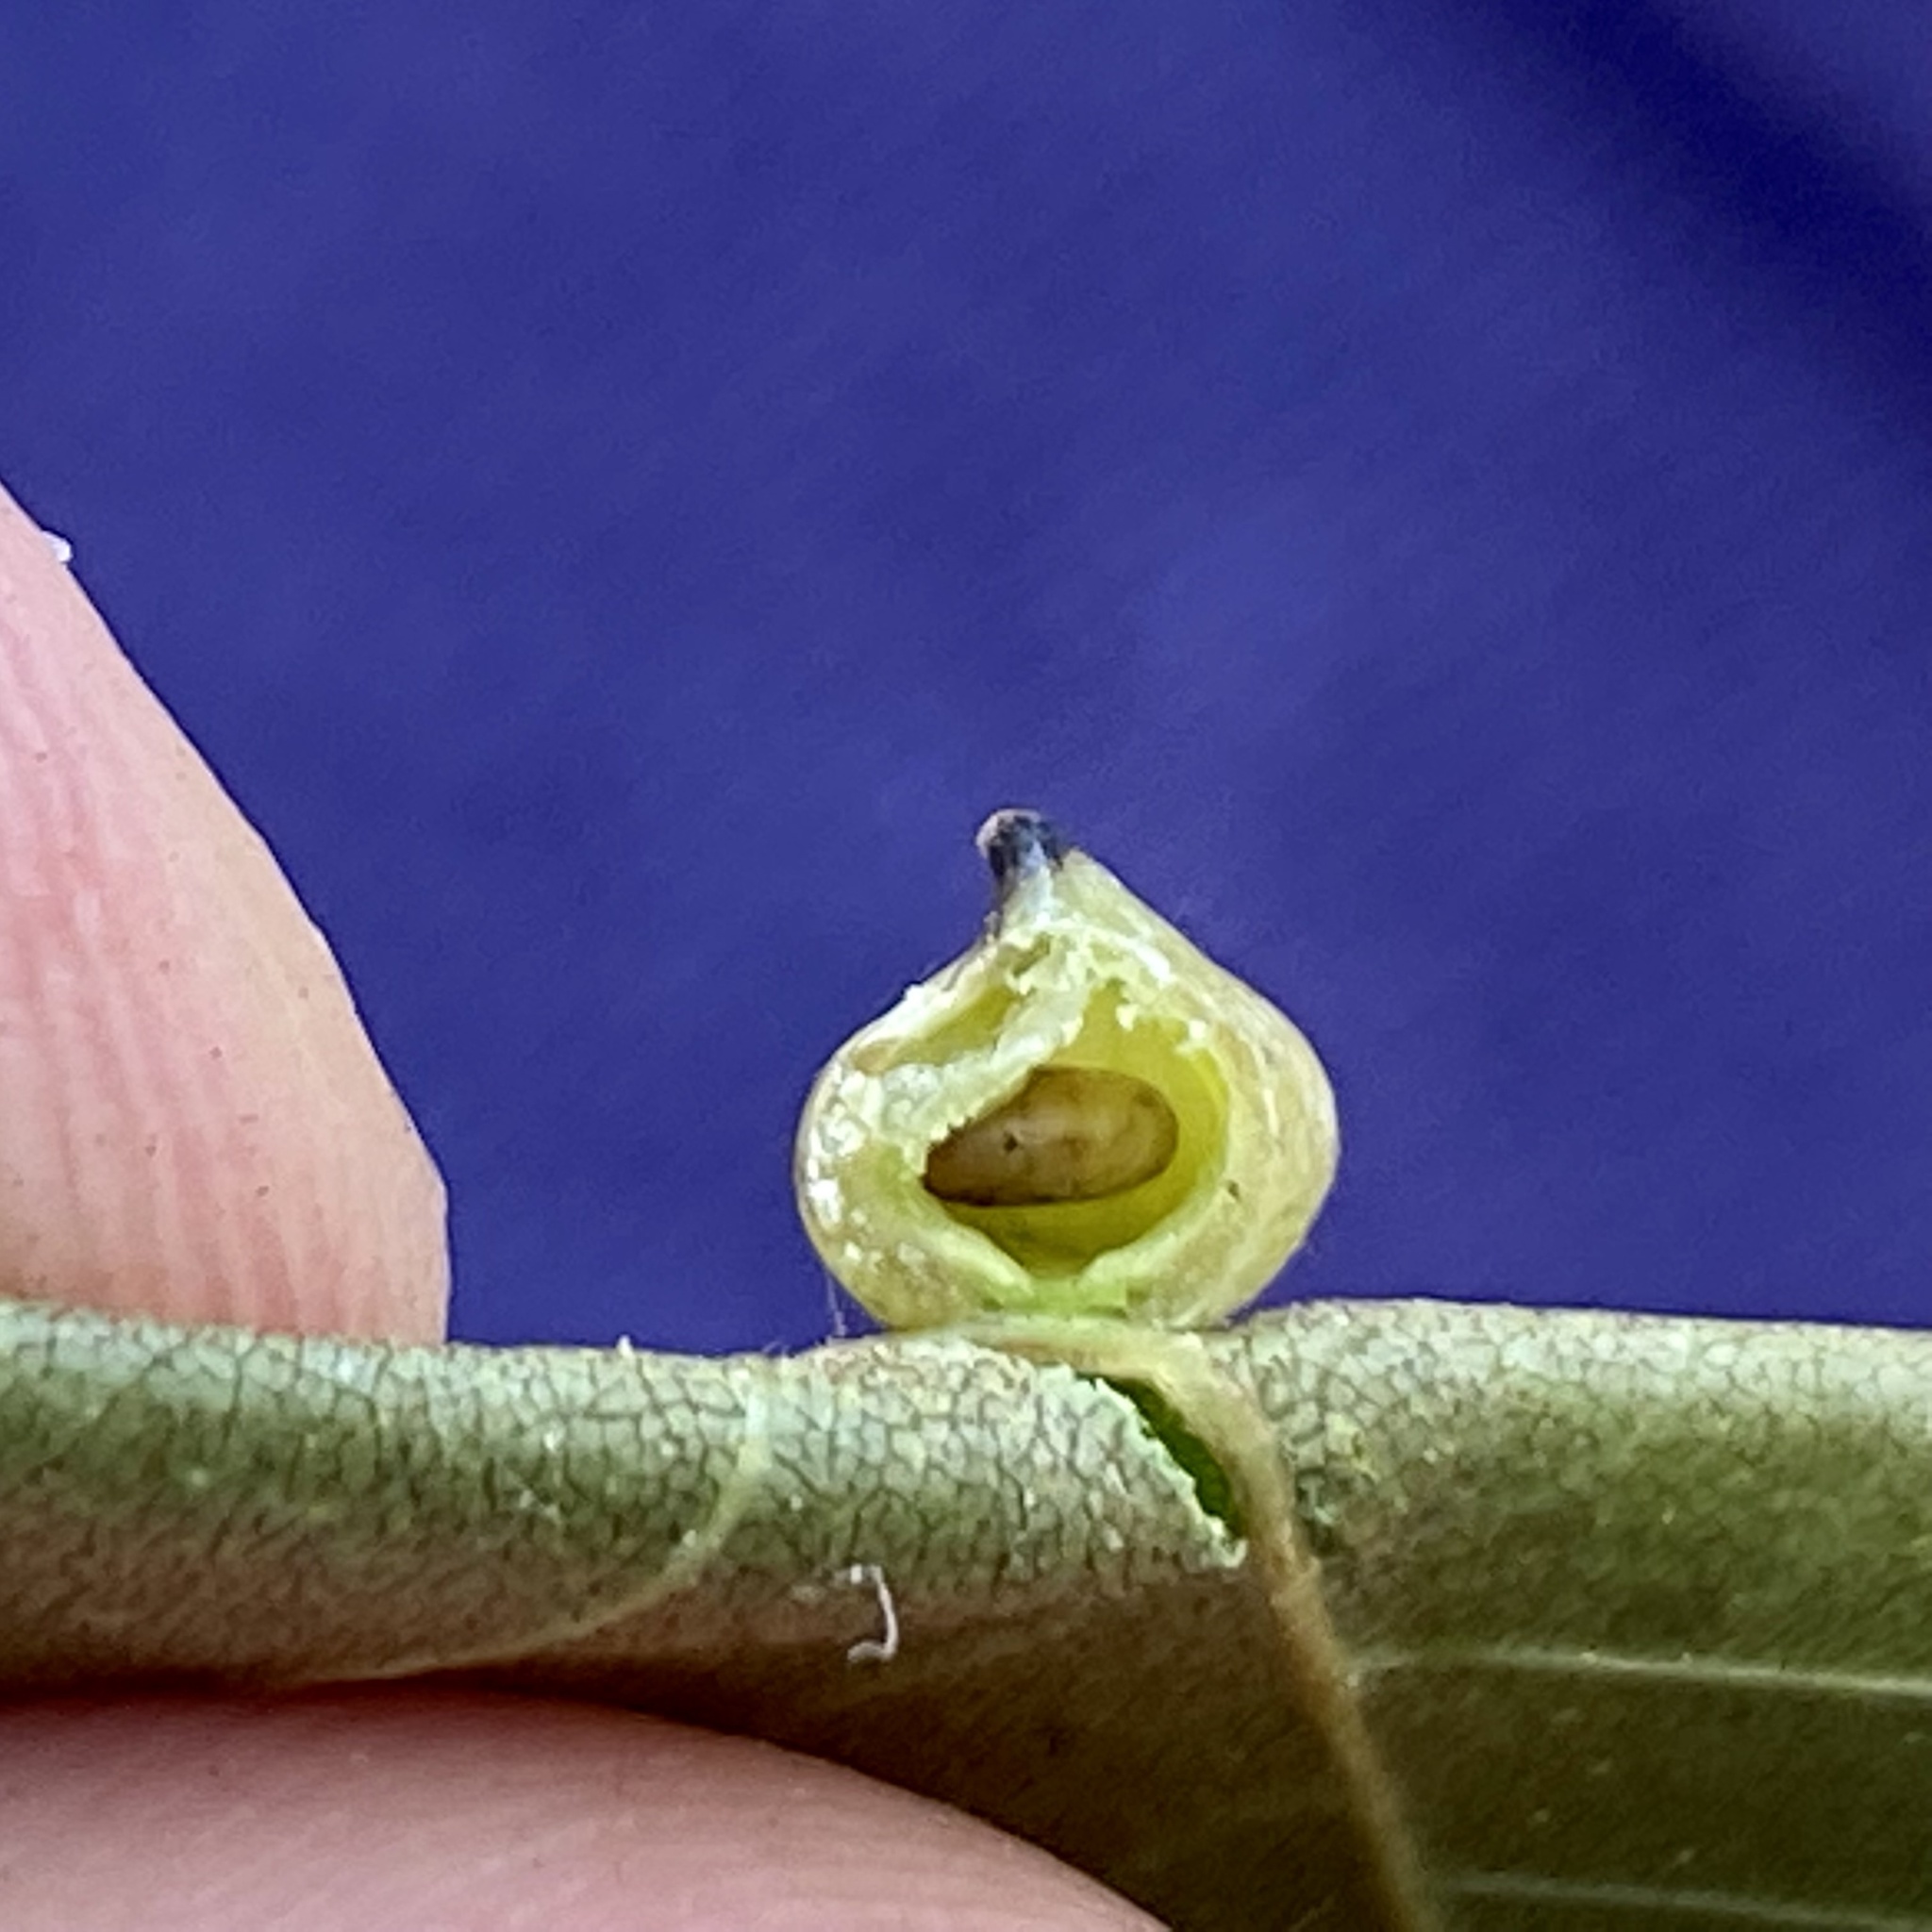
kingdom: Animalia
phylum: Arthropoda
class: Insecta
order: Diptera
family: Cecidomyiidae
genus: Caryomyia
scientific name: Caryomyia caryaecola
